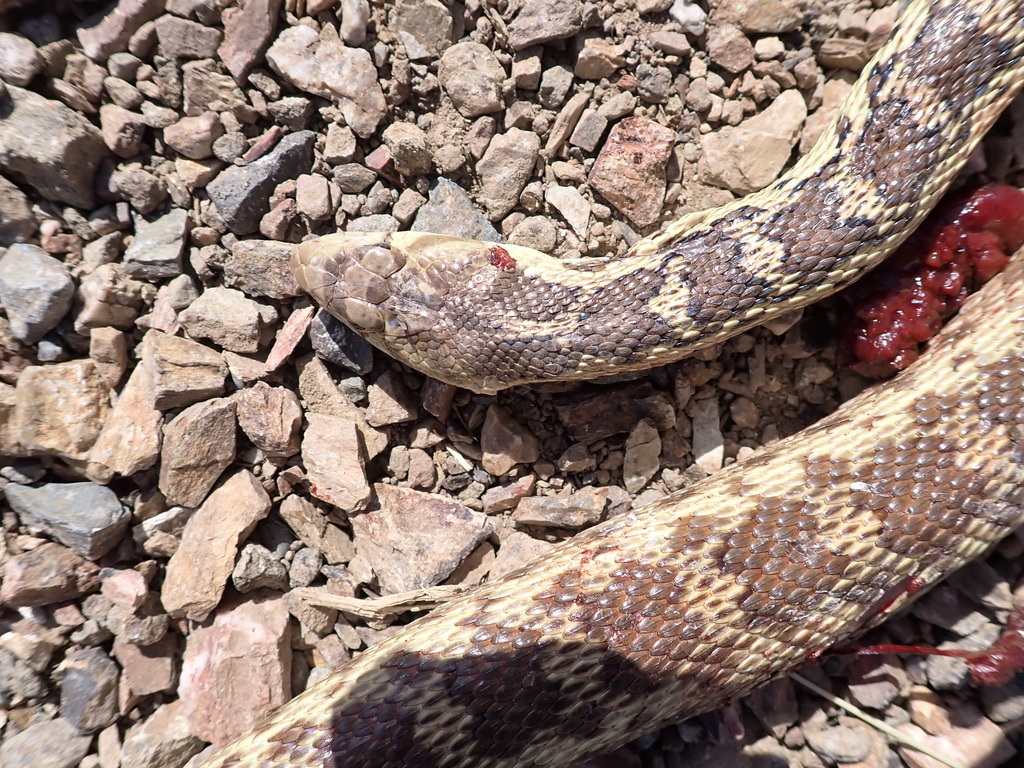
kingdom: Animalia
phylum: Chordata
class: Squamata
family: Colubridae
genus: Pituophis
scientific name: Pituophis catenifer
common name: Gopher snake
